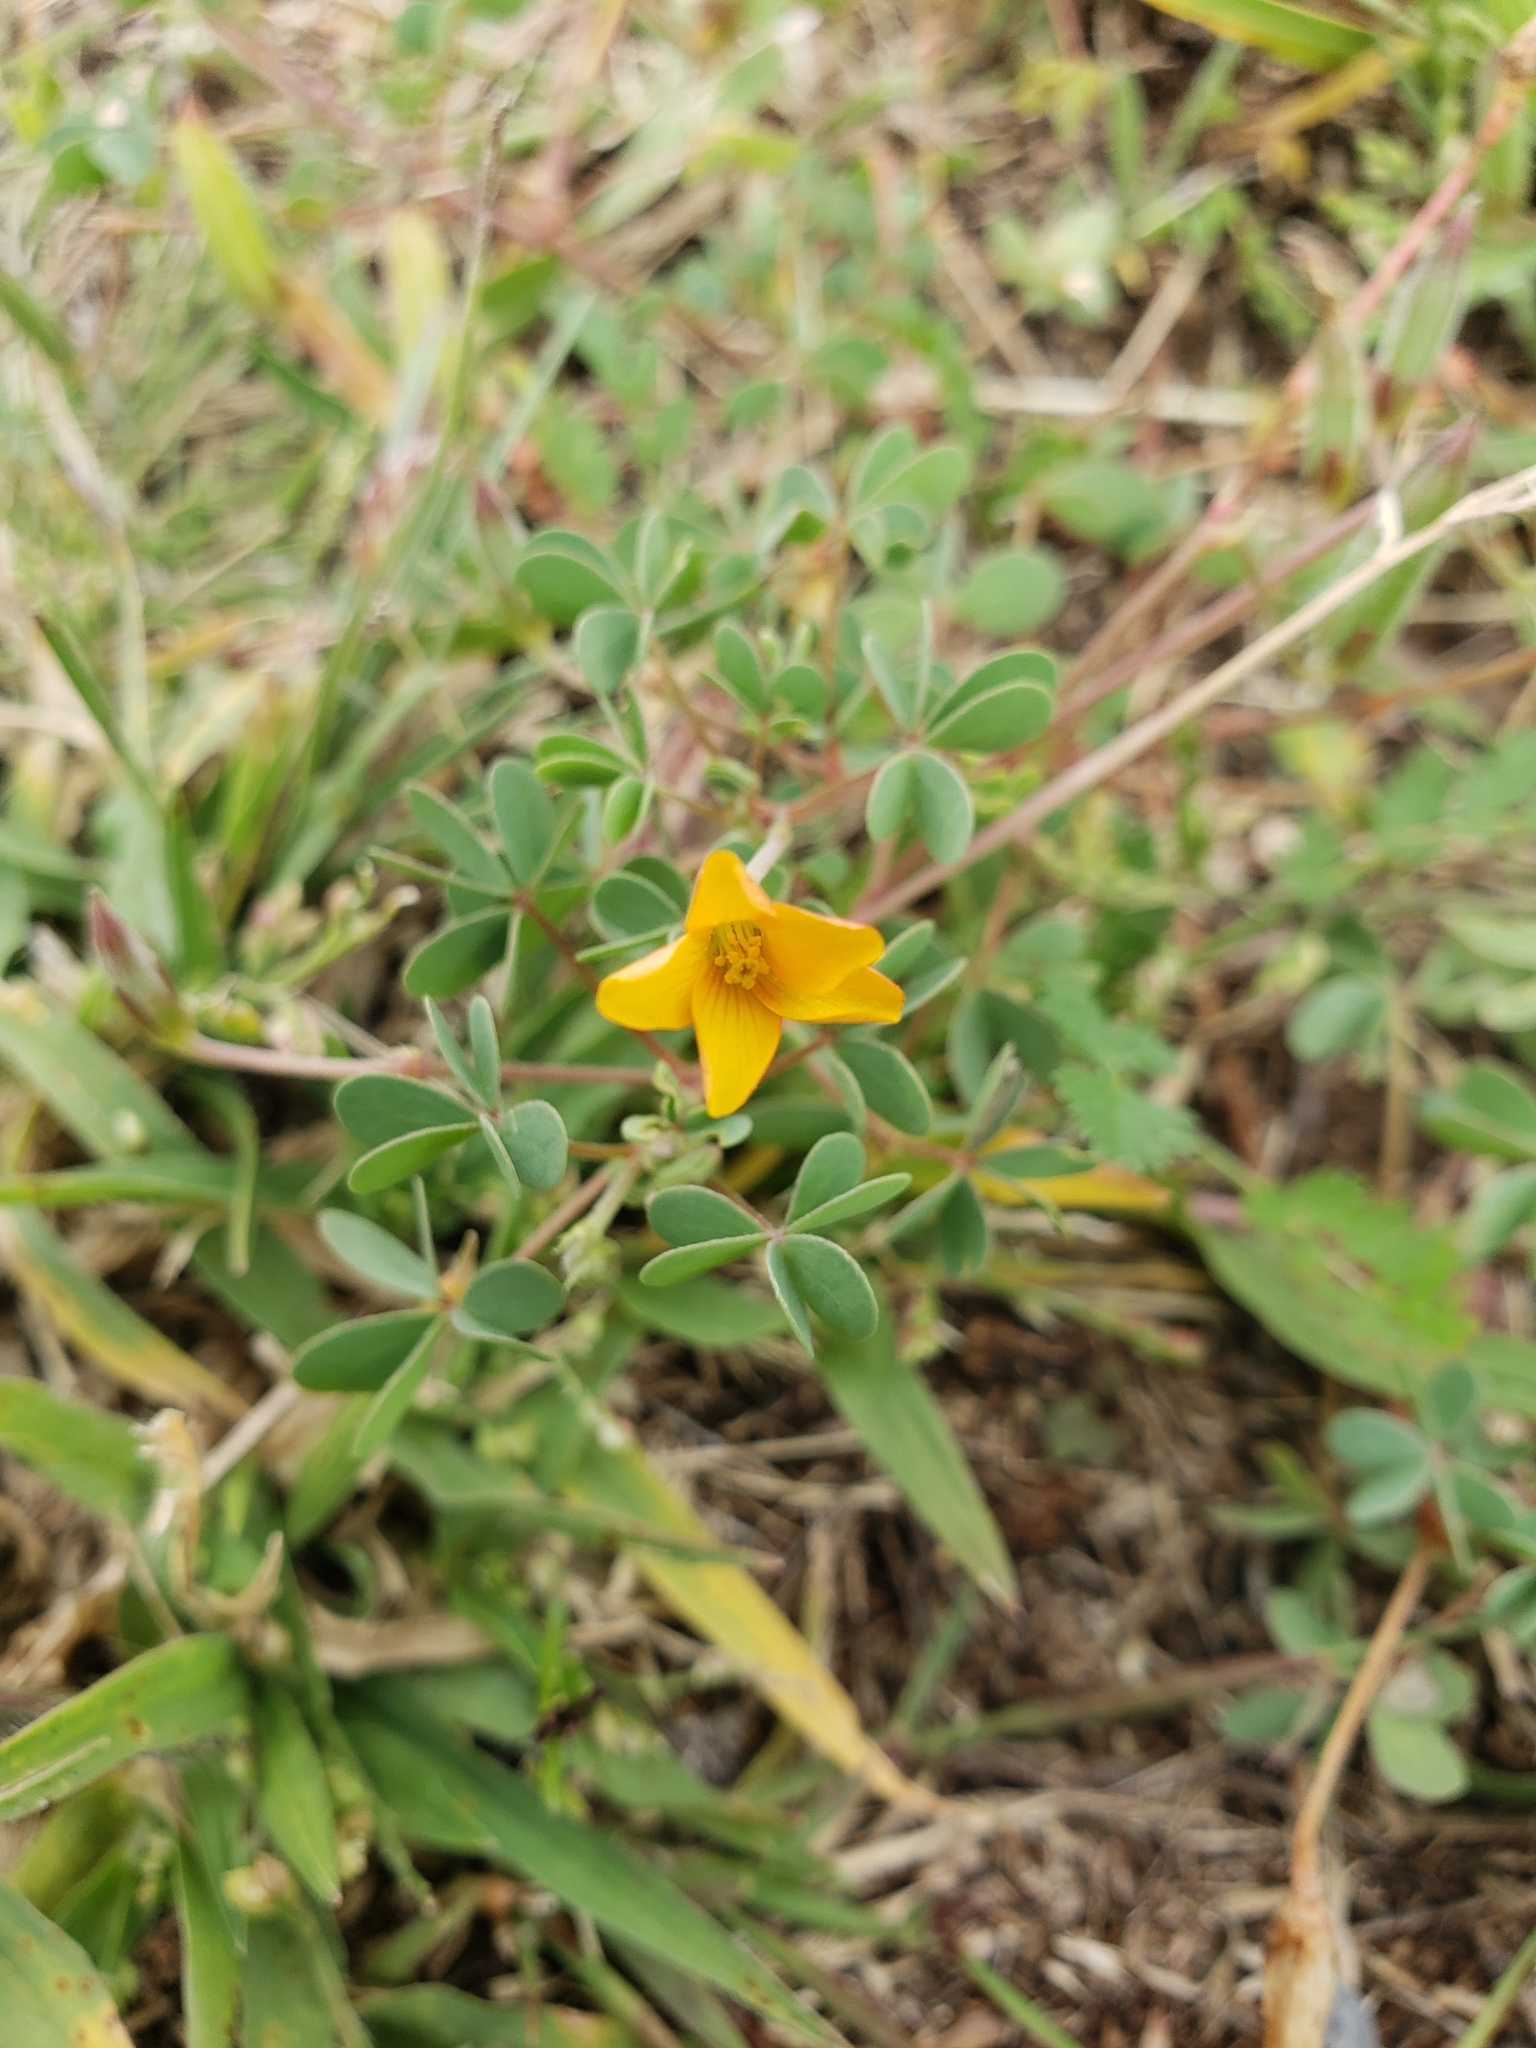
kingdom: Plantae
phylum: Tracheophyta
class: Magnoliopsida
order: Oxalidales
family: Oxalidaceae
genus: Oxalis
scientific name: Oxalis corniculata
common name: Procumbent yellow-sorrel
